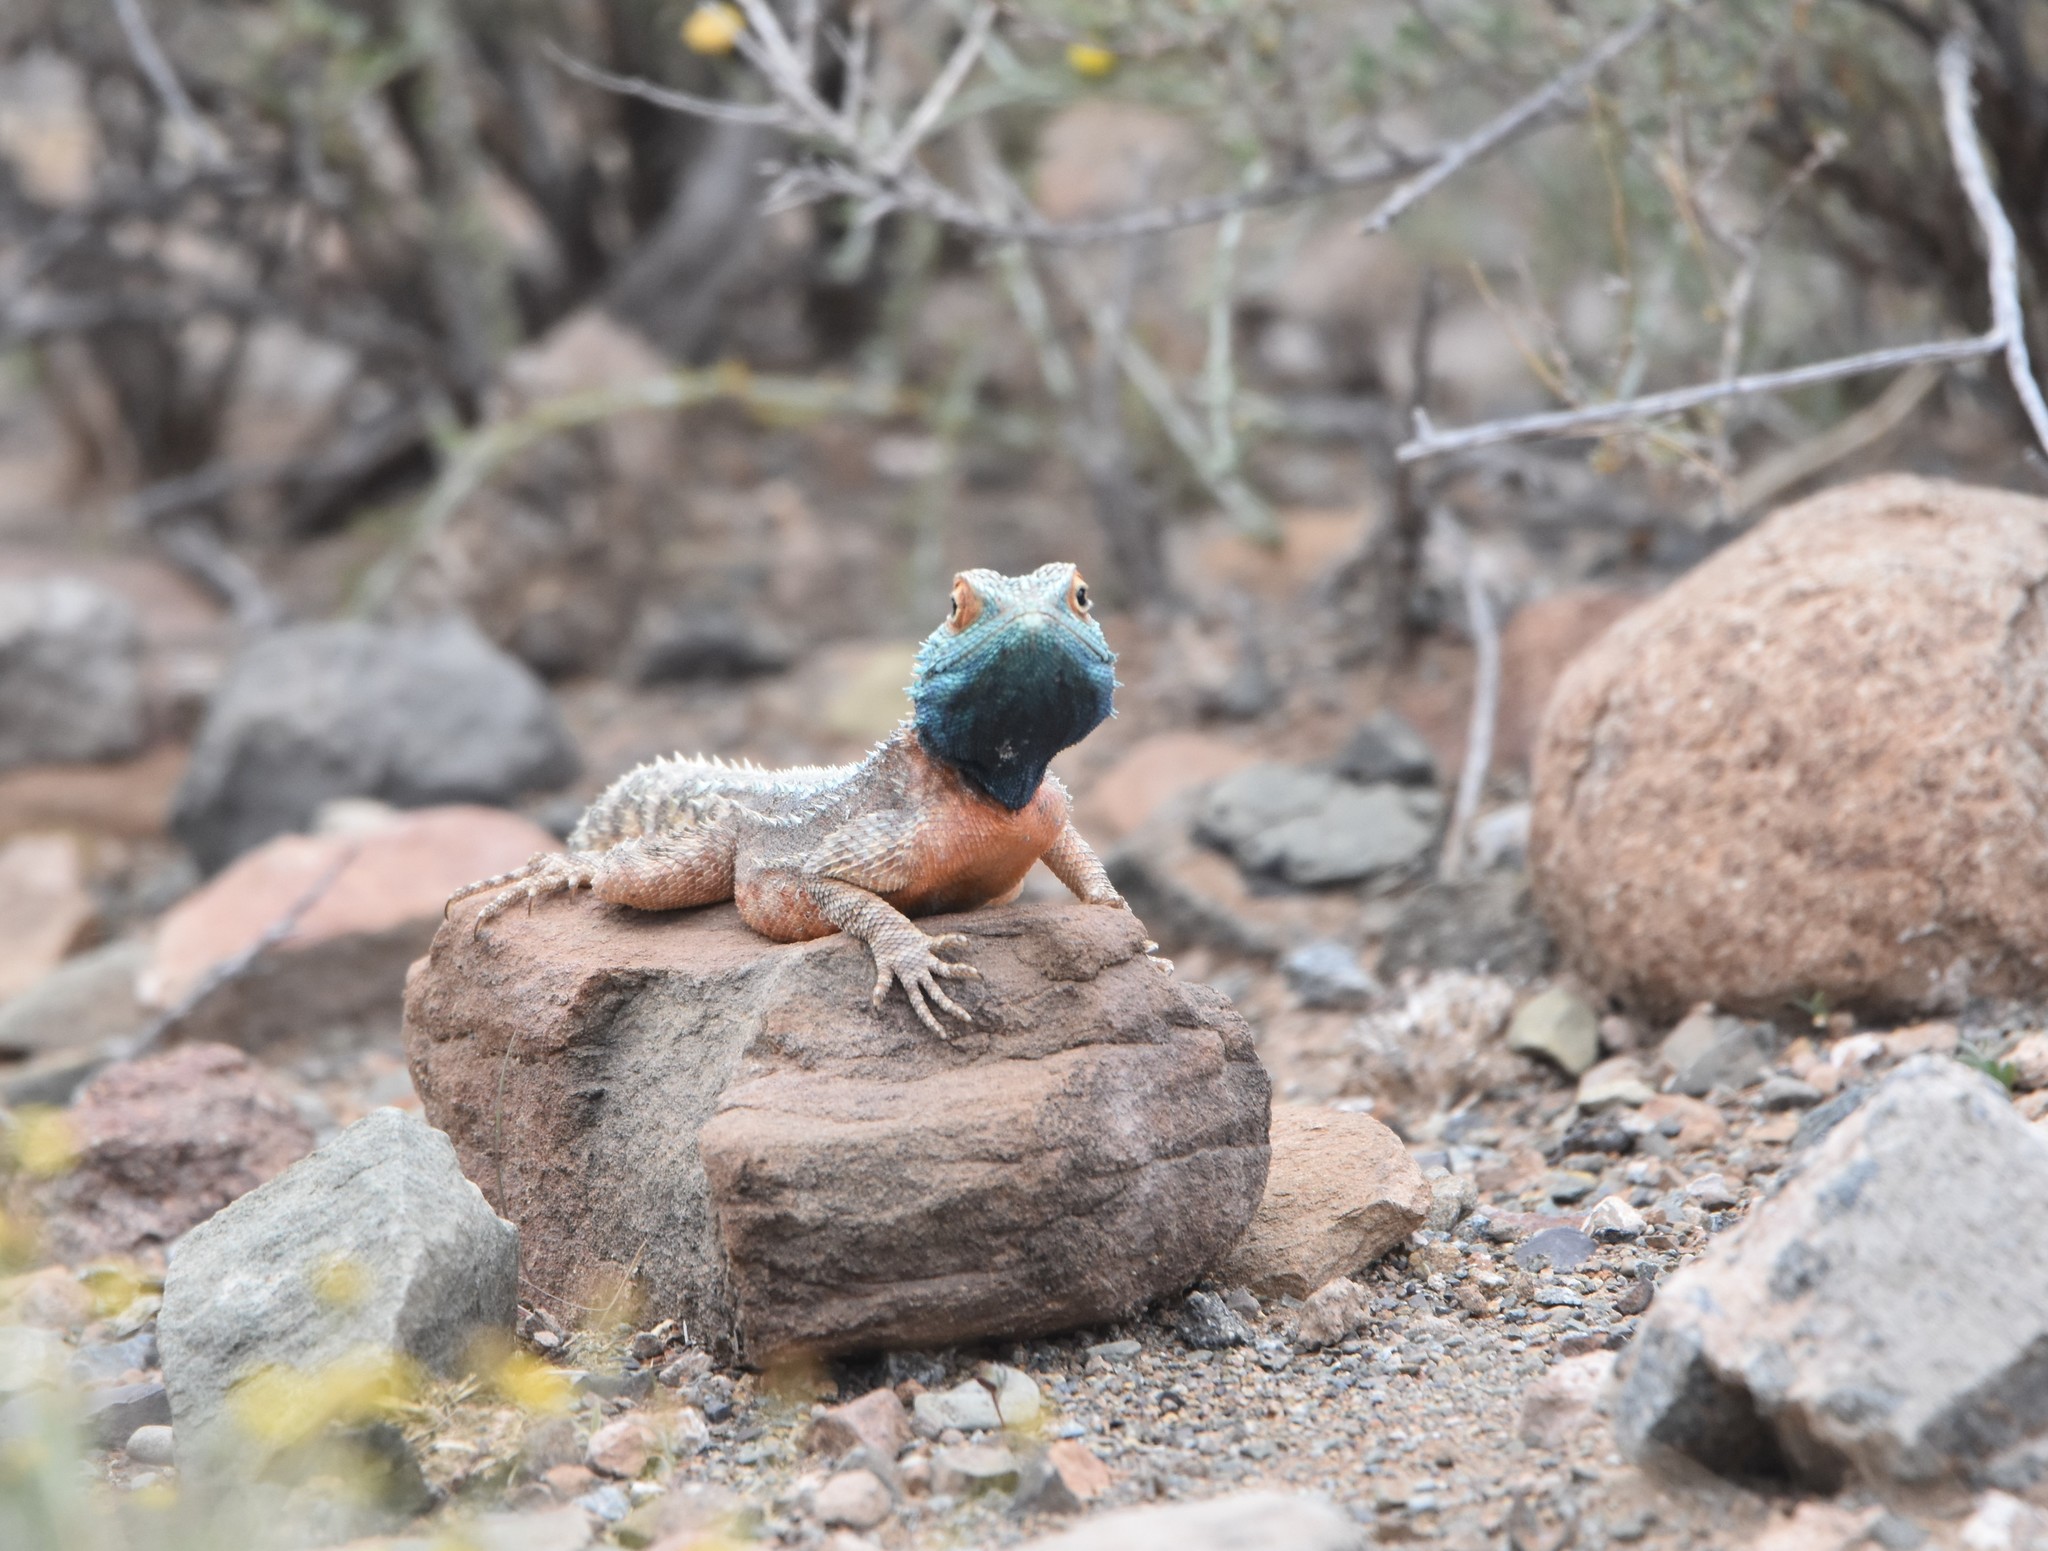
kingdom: Animalia
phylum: Chordata
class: Squamata
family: Agamidae
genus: Agama
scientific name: Agama aculeata
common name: Common ground agama
